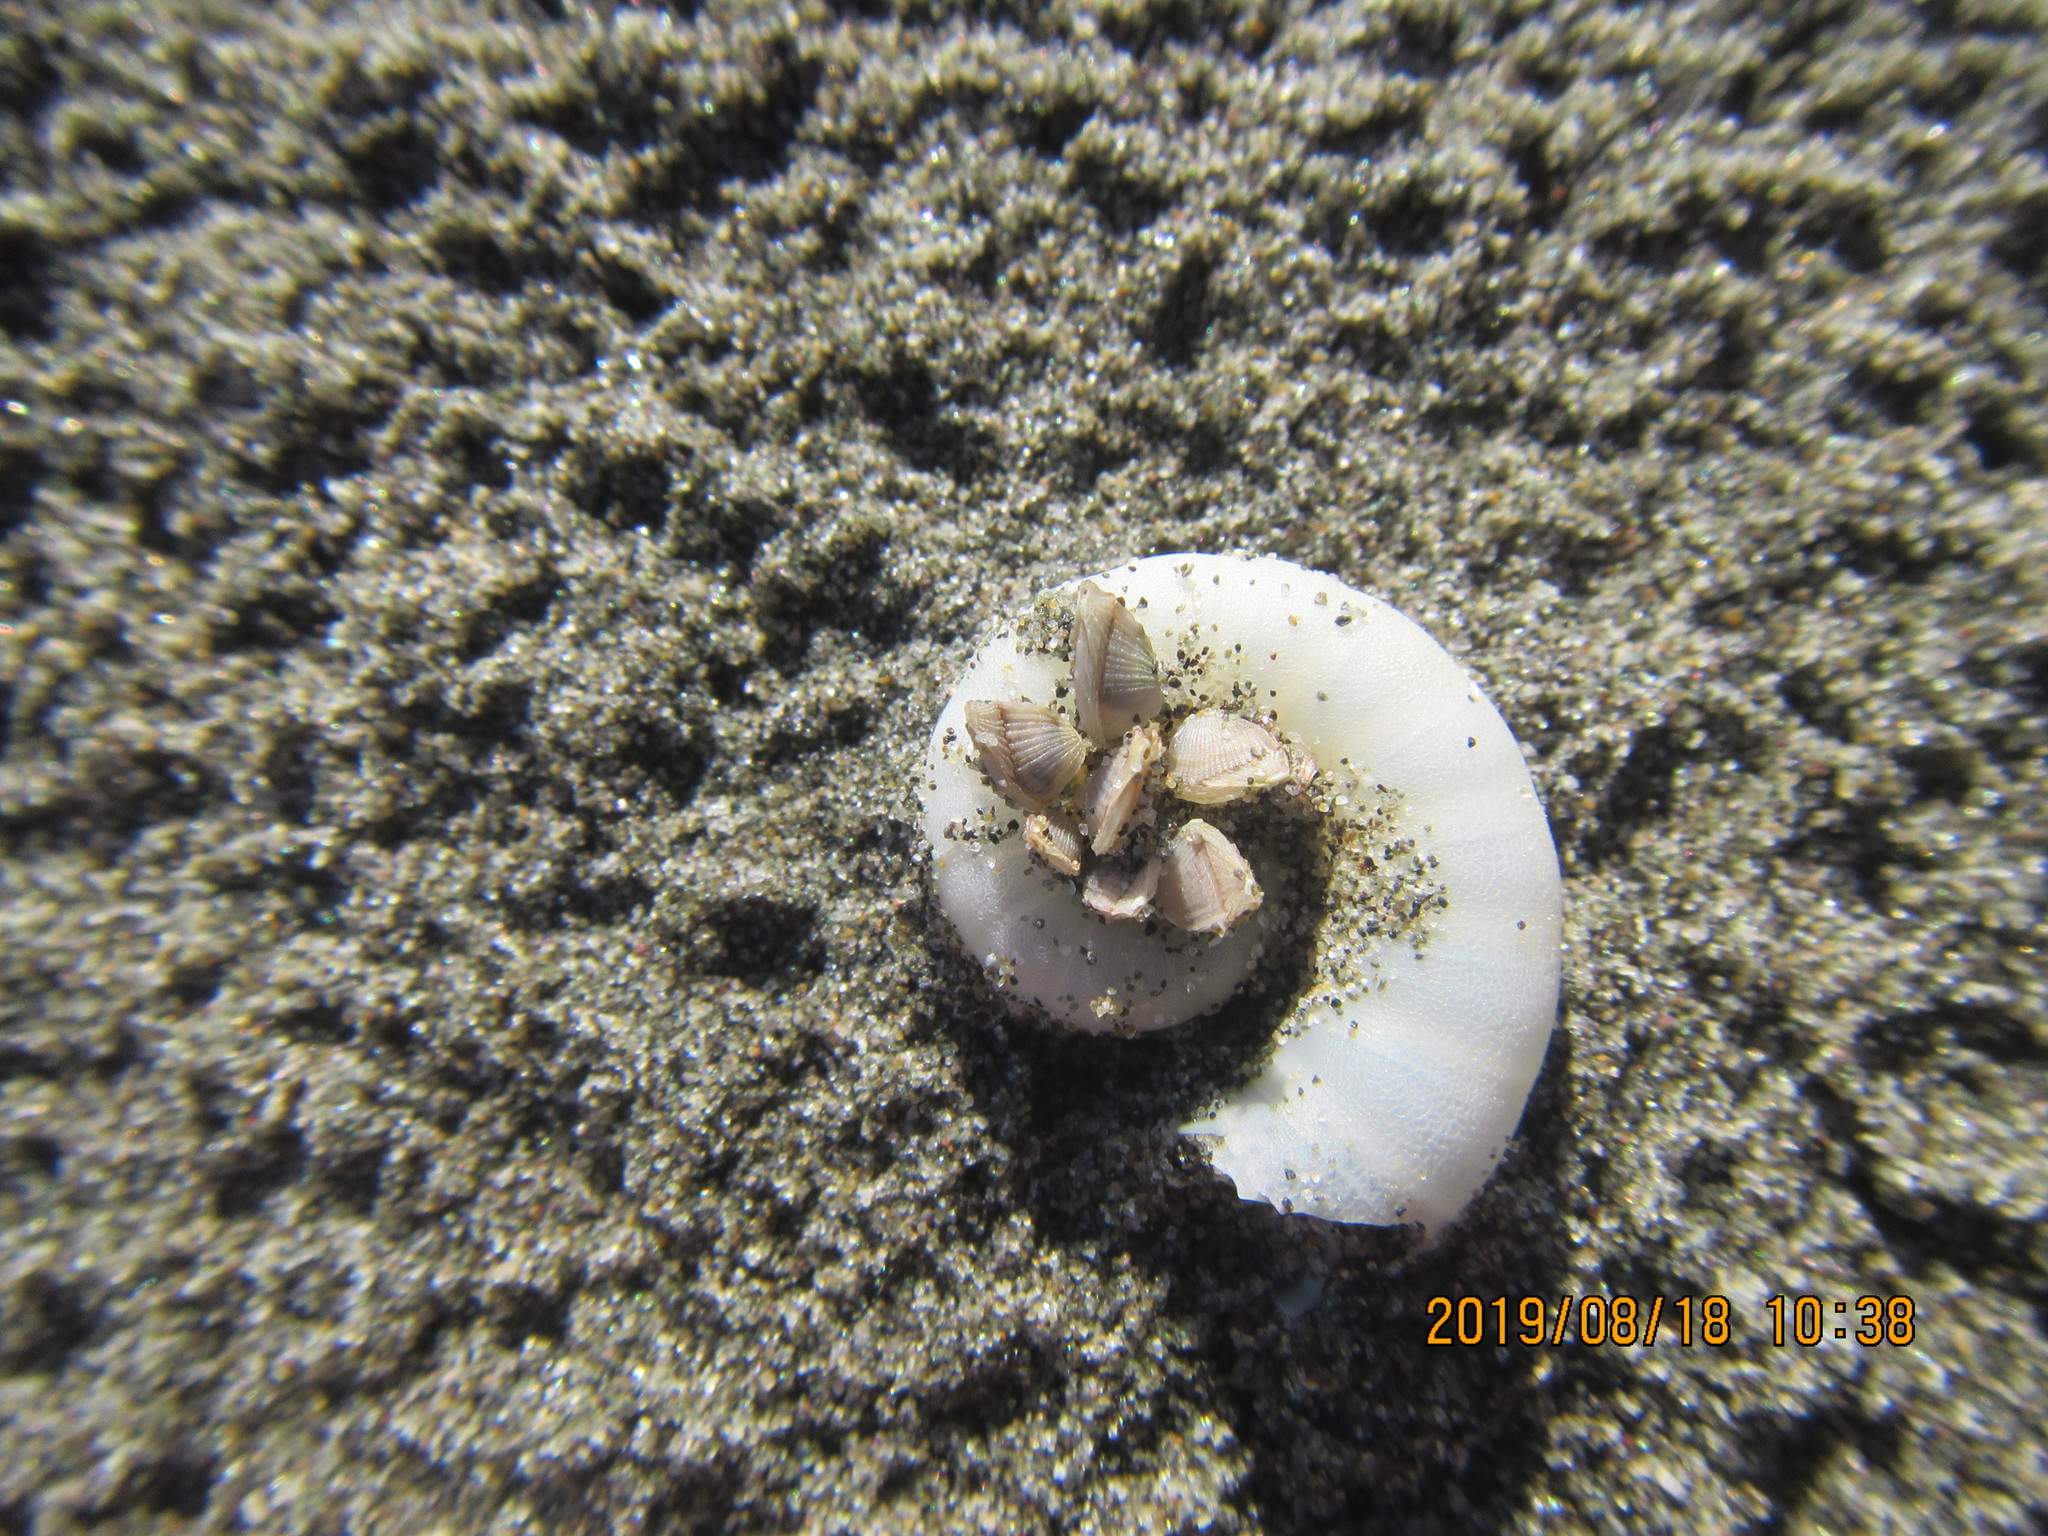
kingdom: Animalia
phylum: Mollusca
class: Cephalopoda
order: Spirulida
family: Spirulidae
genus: Spirula
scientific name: Spirula spirula
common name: Ram's horn squid
